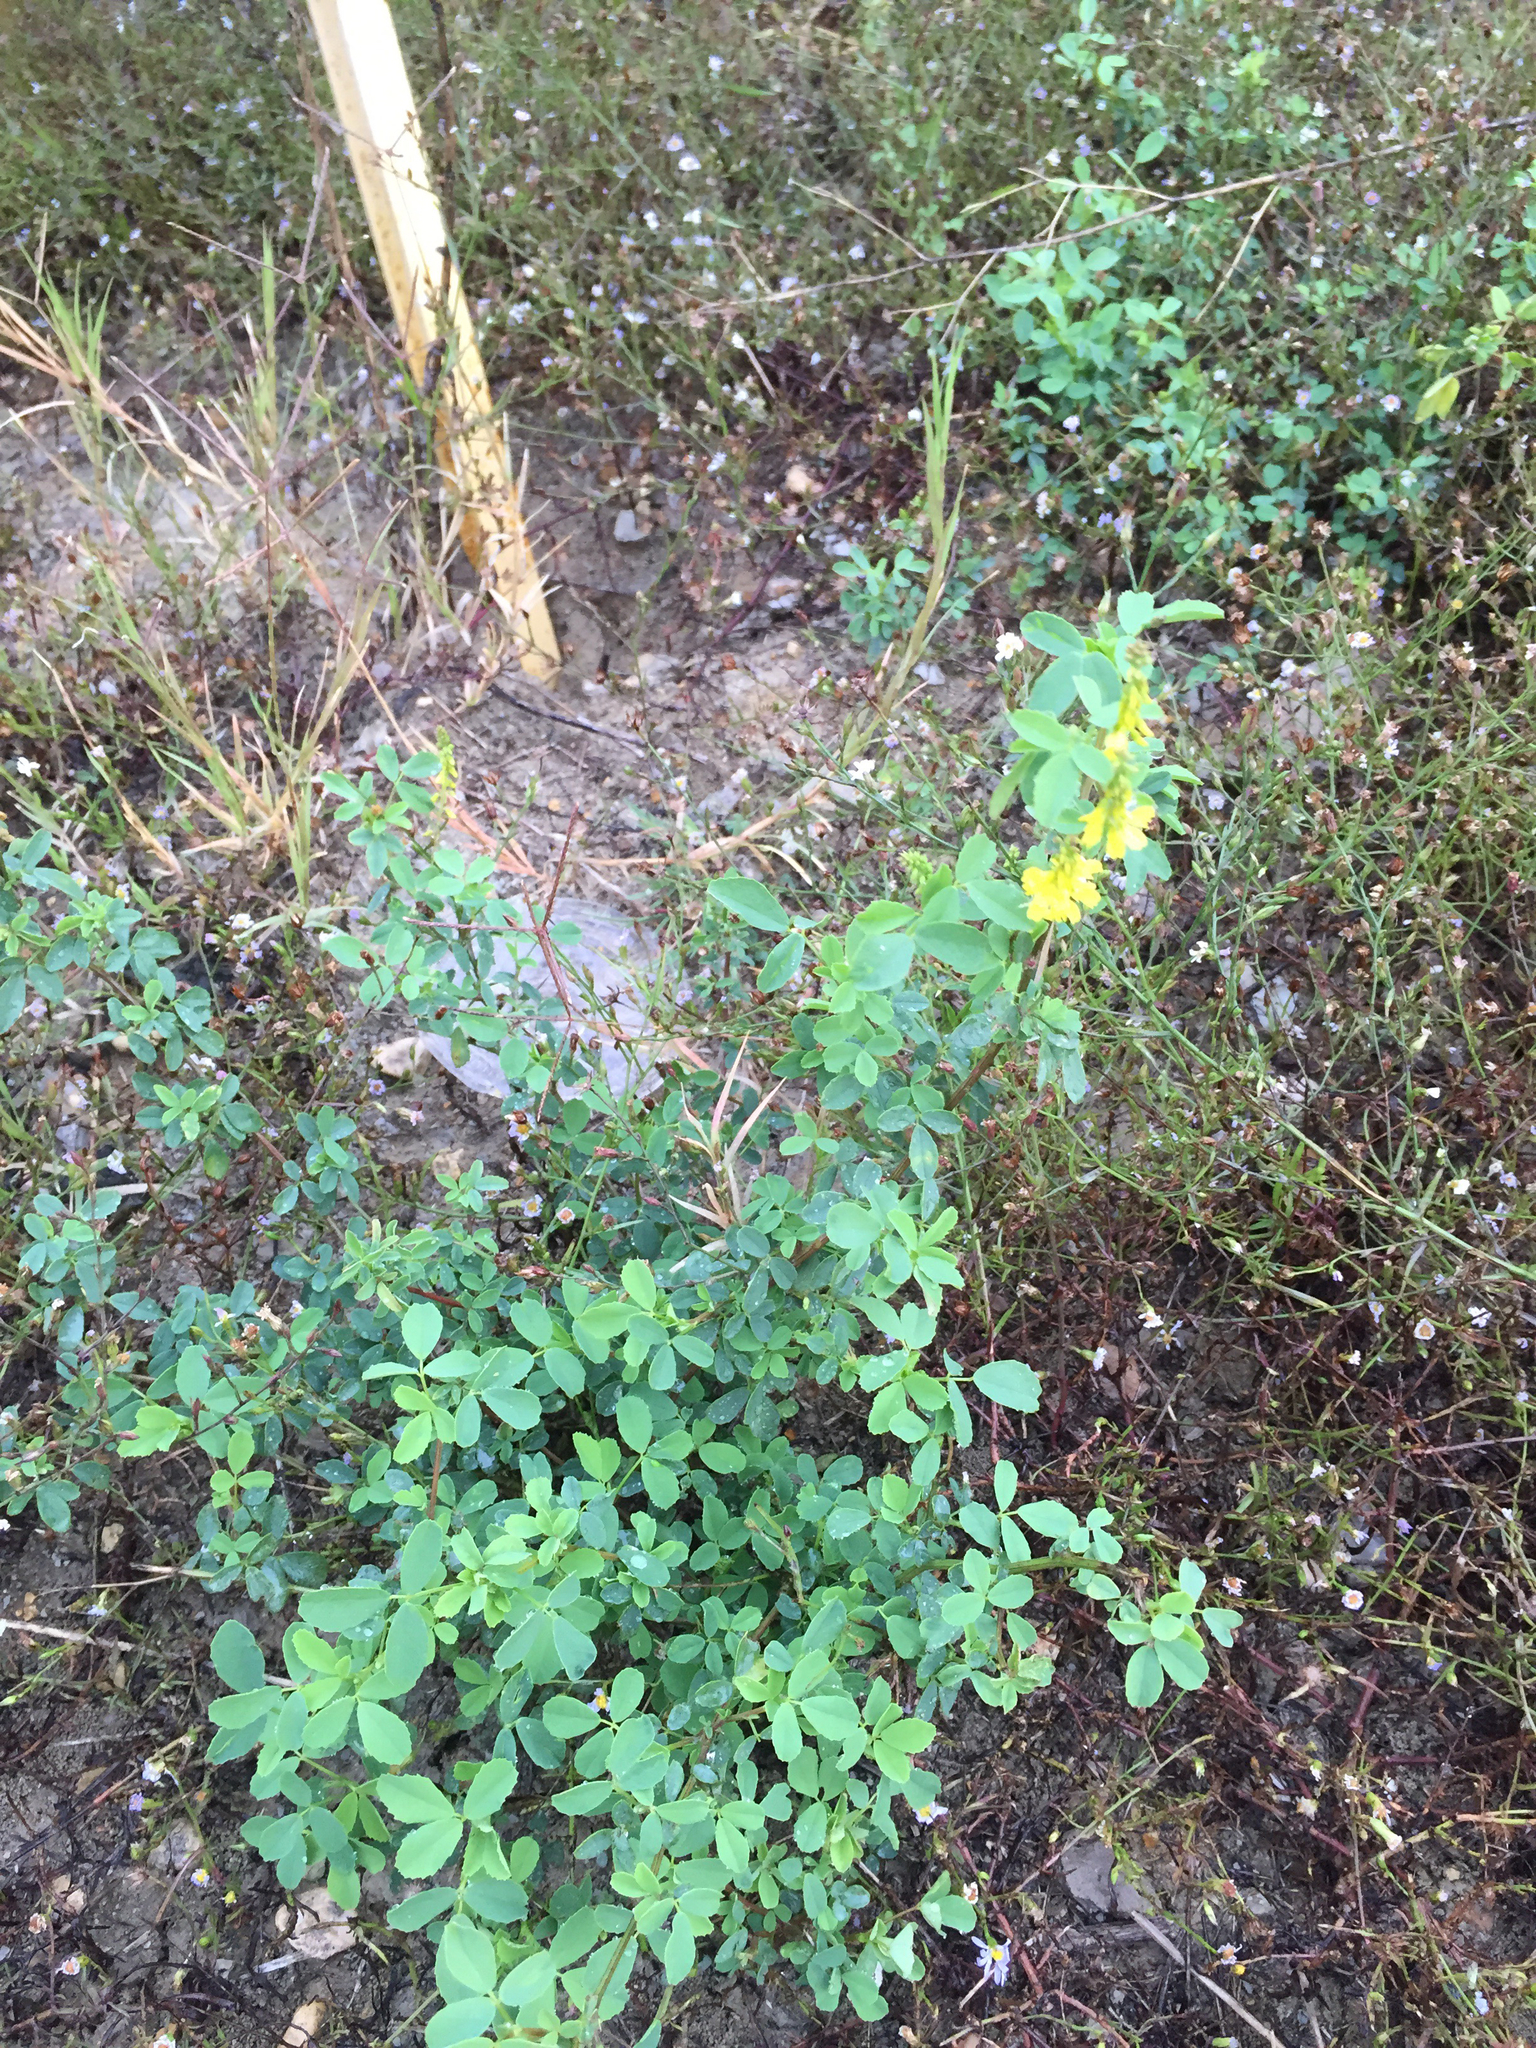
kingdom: Plantae
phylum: Tracheophyta
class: Magnoliopsida
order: Fabales
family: Fabaceae
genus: Melilotus
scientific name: Melilotus officinalis
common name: Sweetclover
